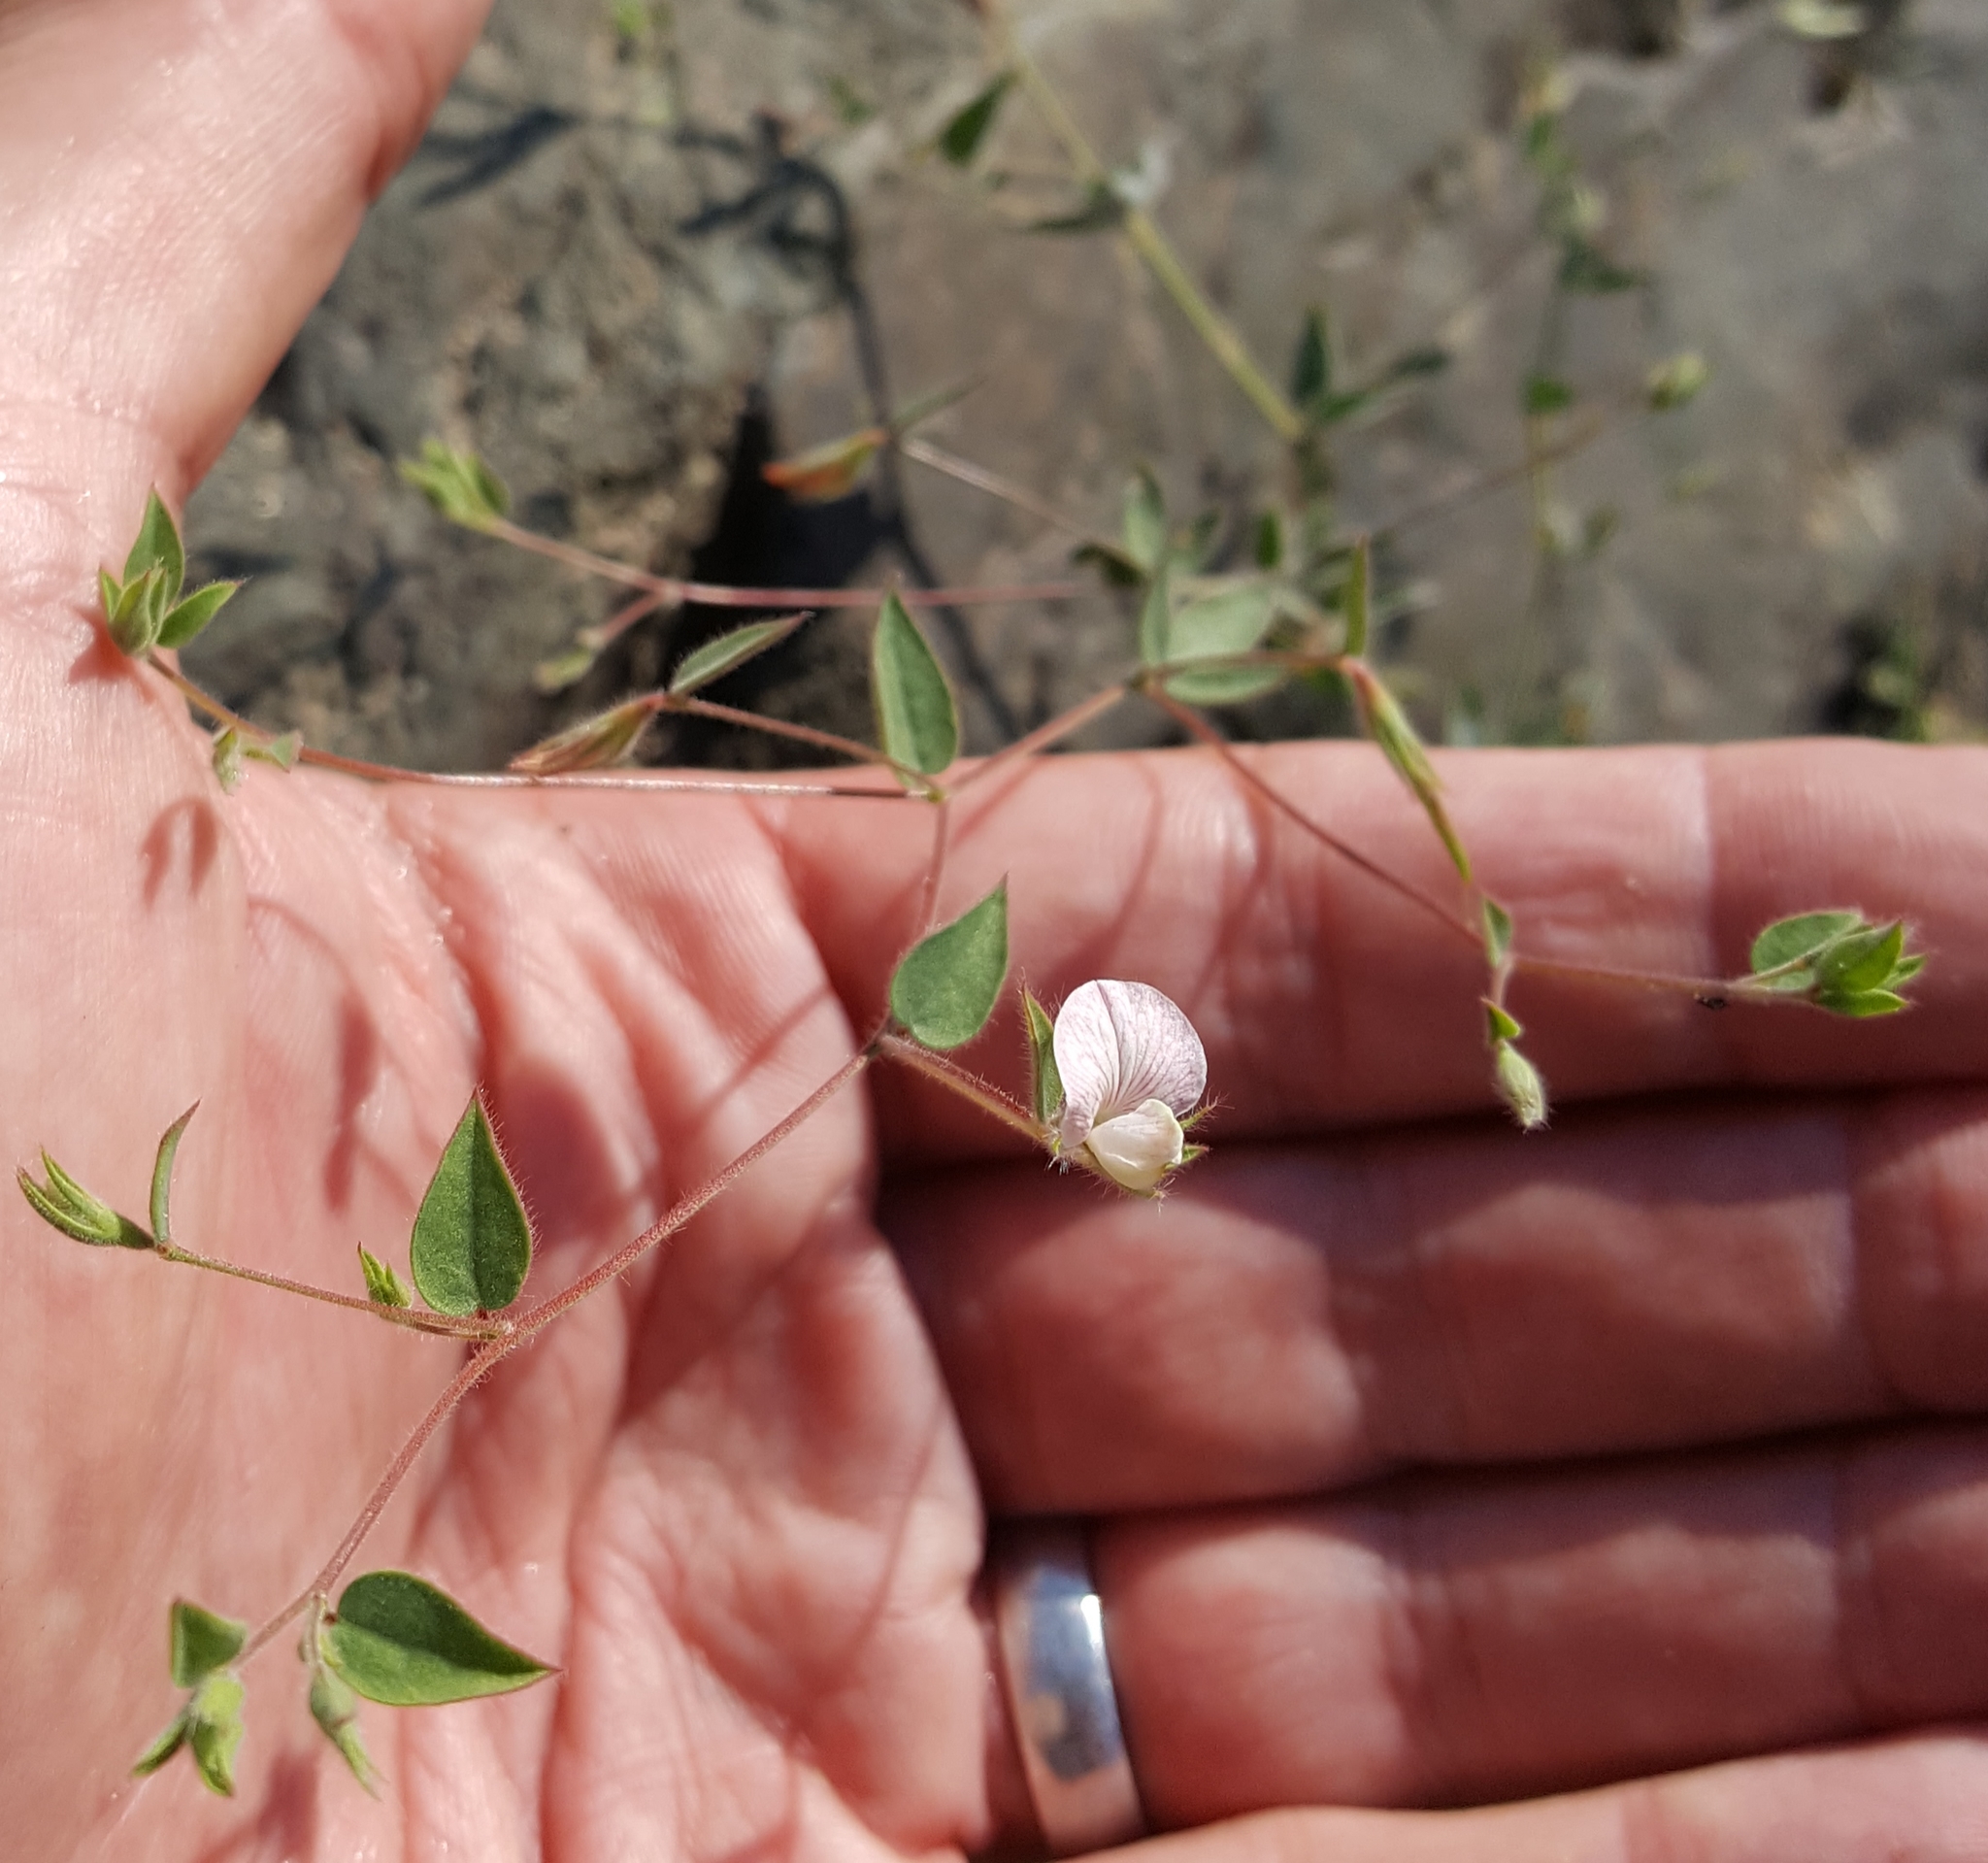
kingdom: Plantae
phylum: Tracheophyta
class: Magnoliopsida
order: Fabales
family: Fabaceae
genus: Acmispon
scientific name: Acmispon americanus
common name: American bird's-foot trefoil
